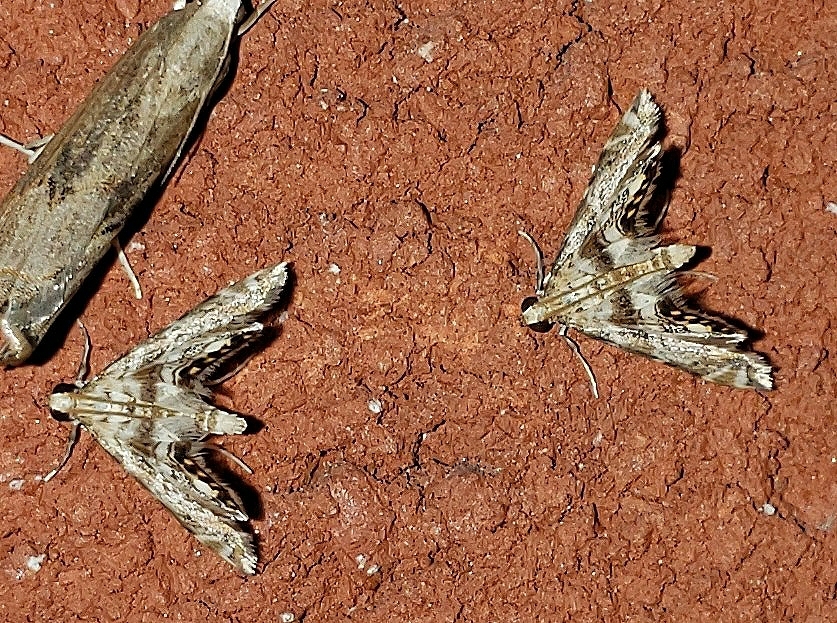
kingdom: Animalia
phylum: Arthropoda
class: Insecta
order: Lepidoptera
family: Crambidae
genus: Petrophila
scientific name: Petrophila fulicalis
